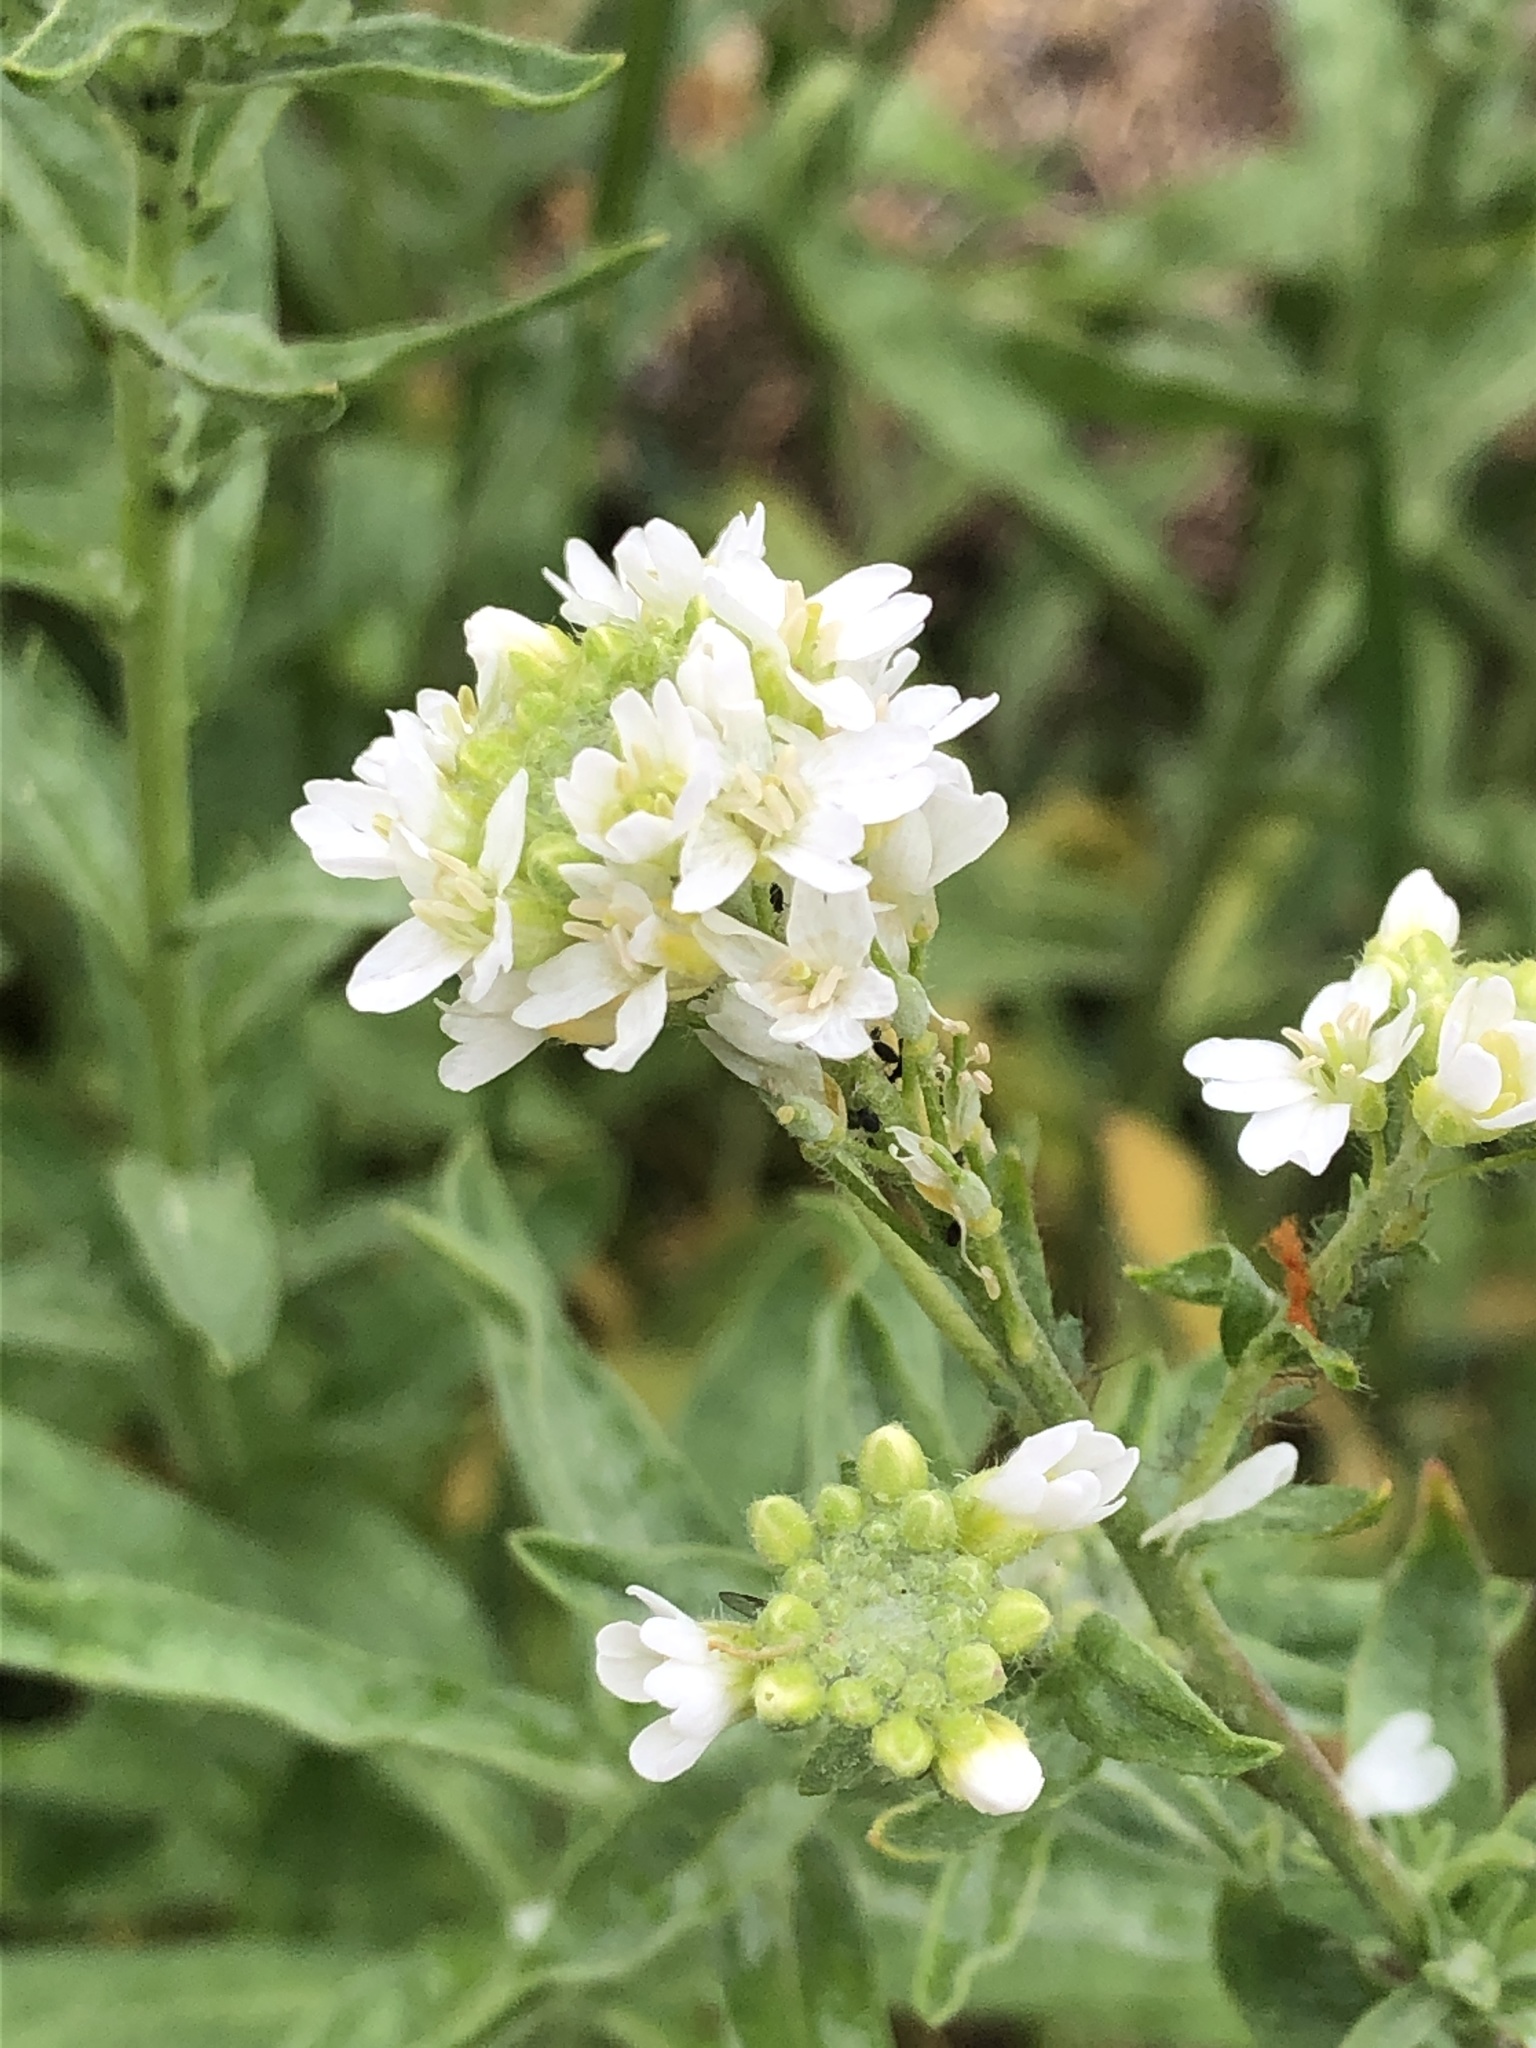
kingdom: Plantae
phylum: Tracheophyta
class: Magnoliopsida
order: Brassicales
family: Brassicaceae
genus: Berteroa
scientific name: Berteroa incana
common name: Hoary alison
